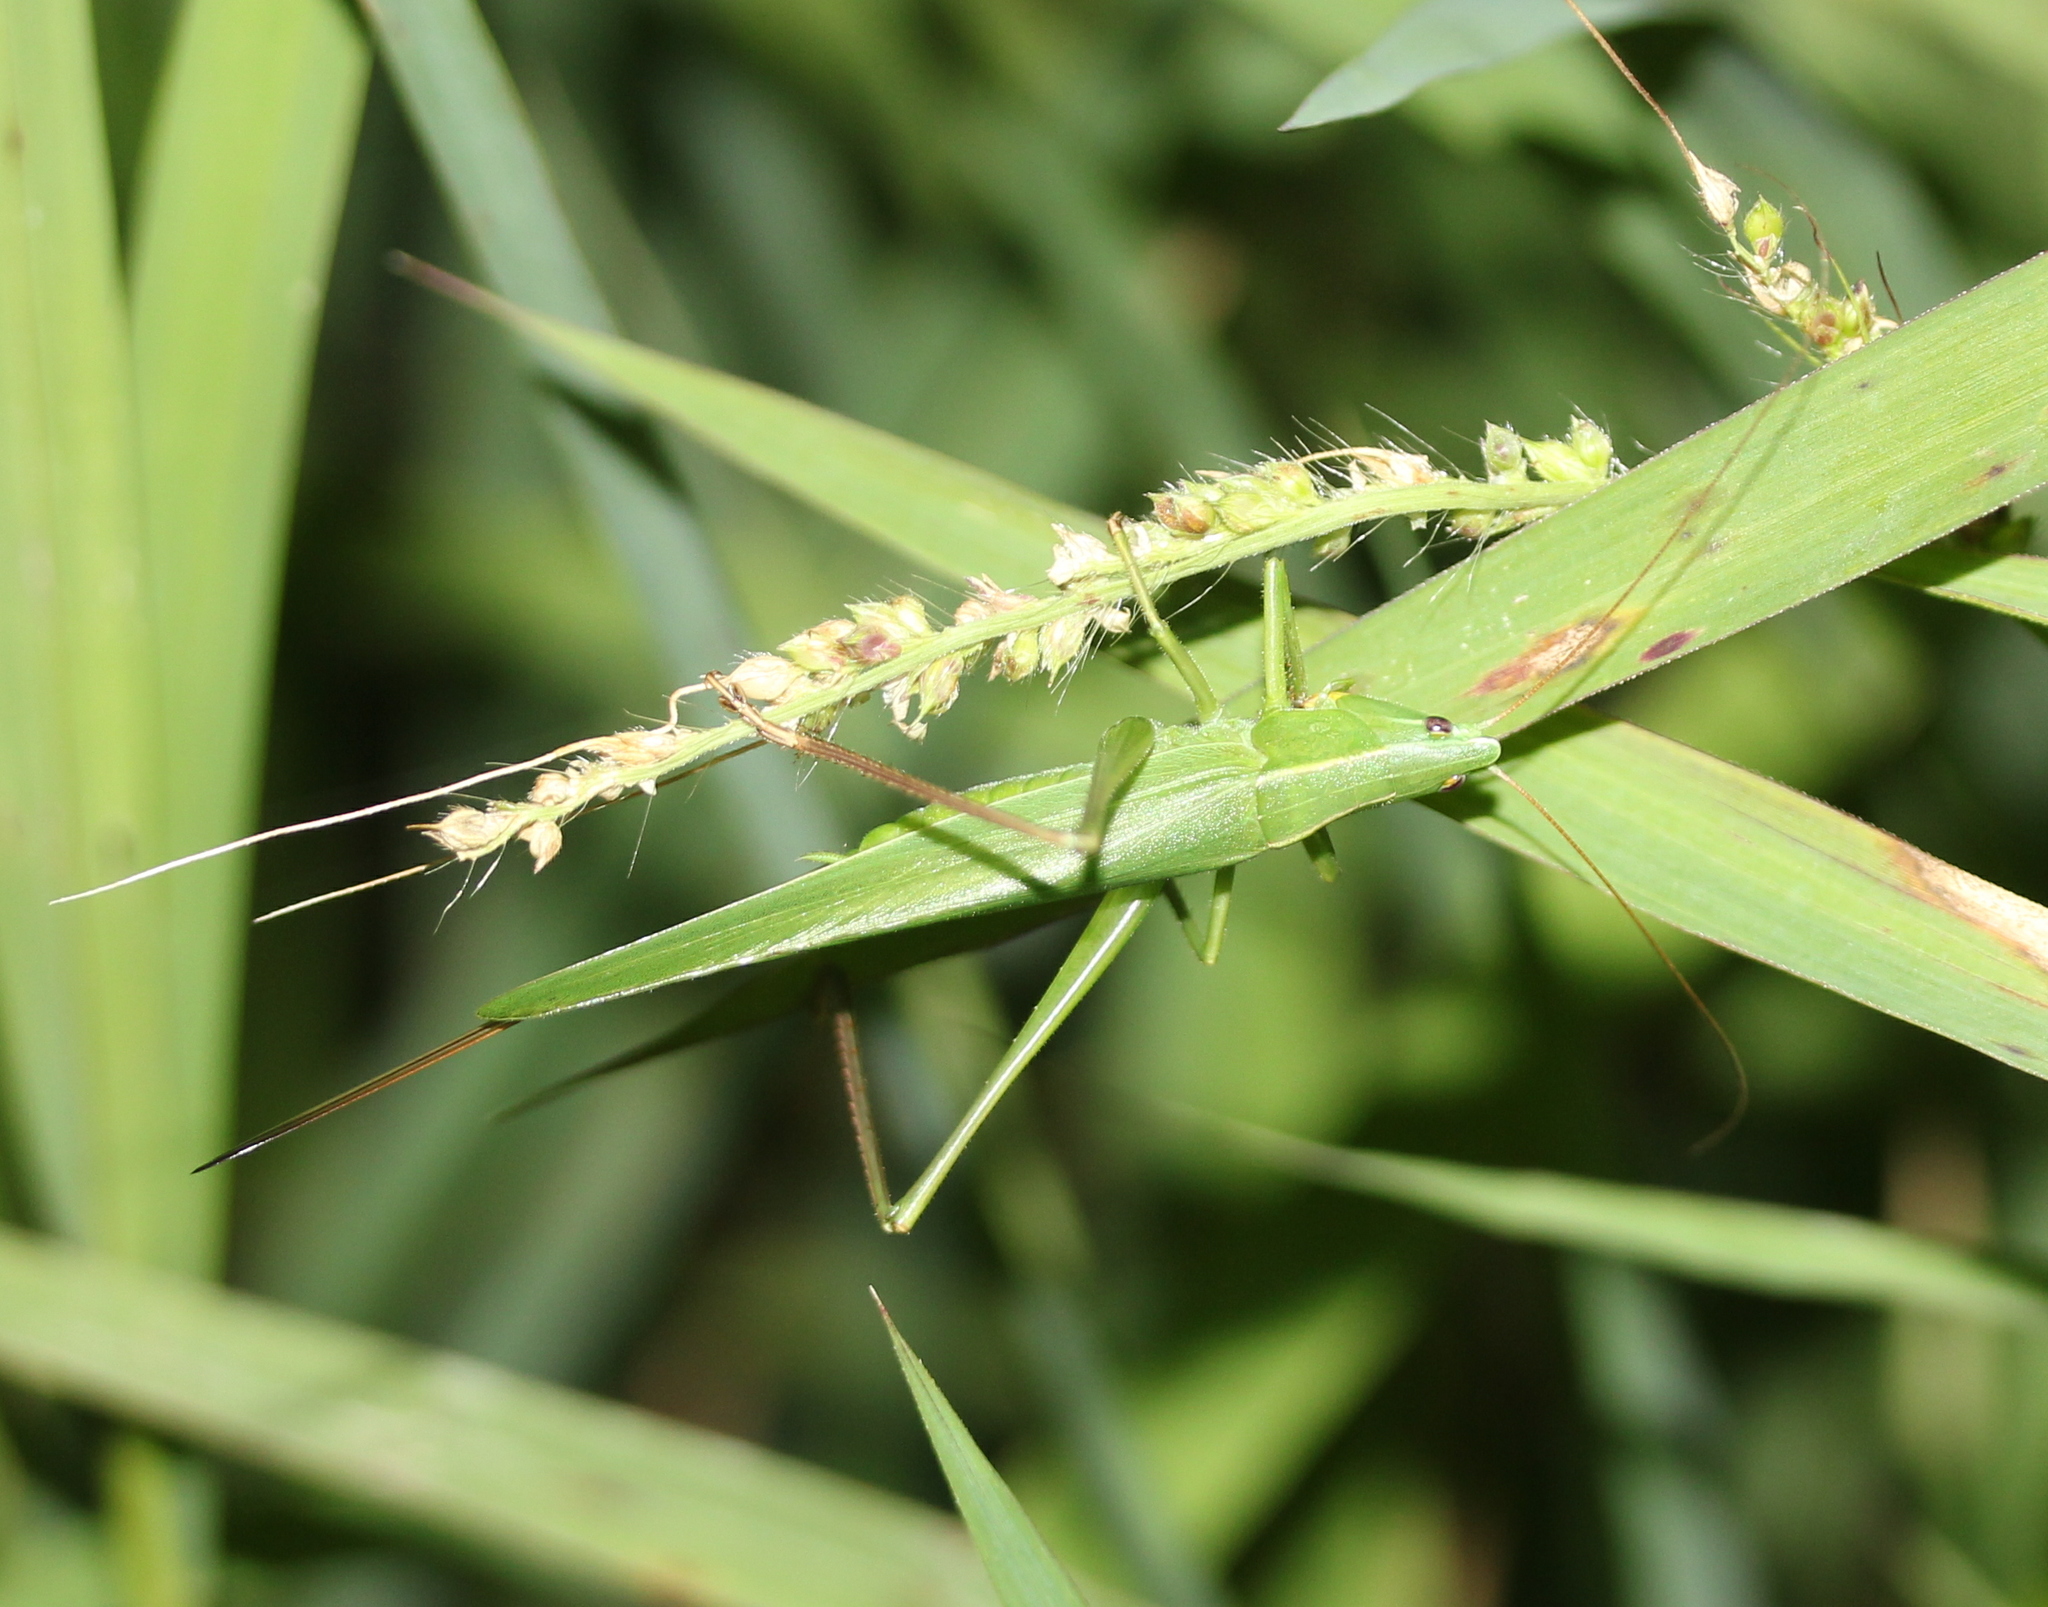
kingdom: Animalia
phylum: Arthropoda
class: Insecta
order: Orthoptera
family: Tettigoniidae
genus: Neoconocephalus
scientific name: Neoconocephalus retusus
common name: Round-tipped conehead
